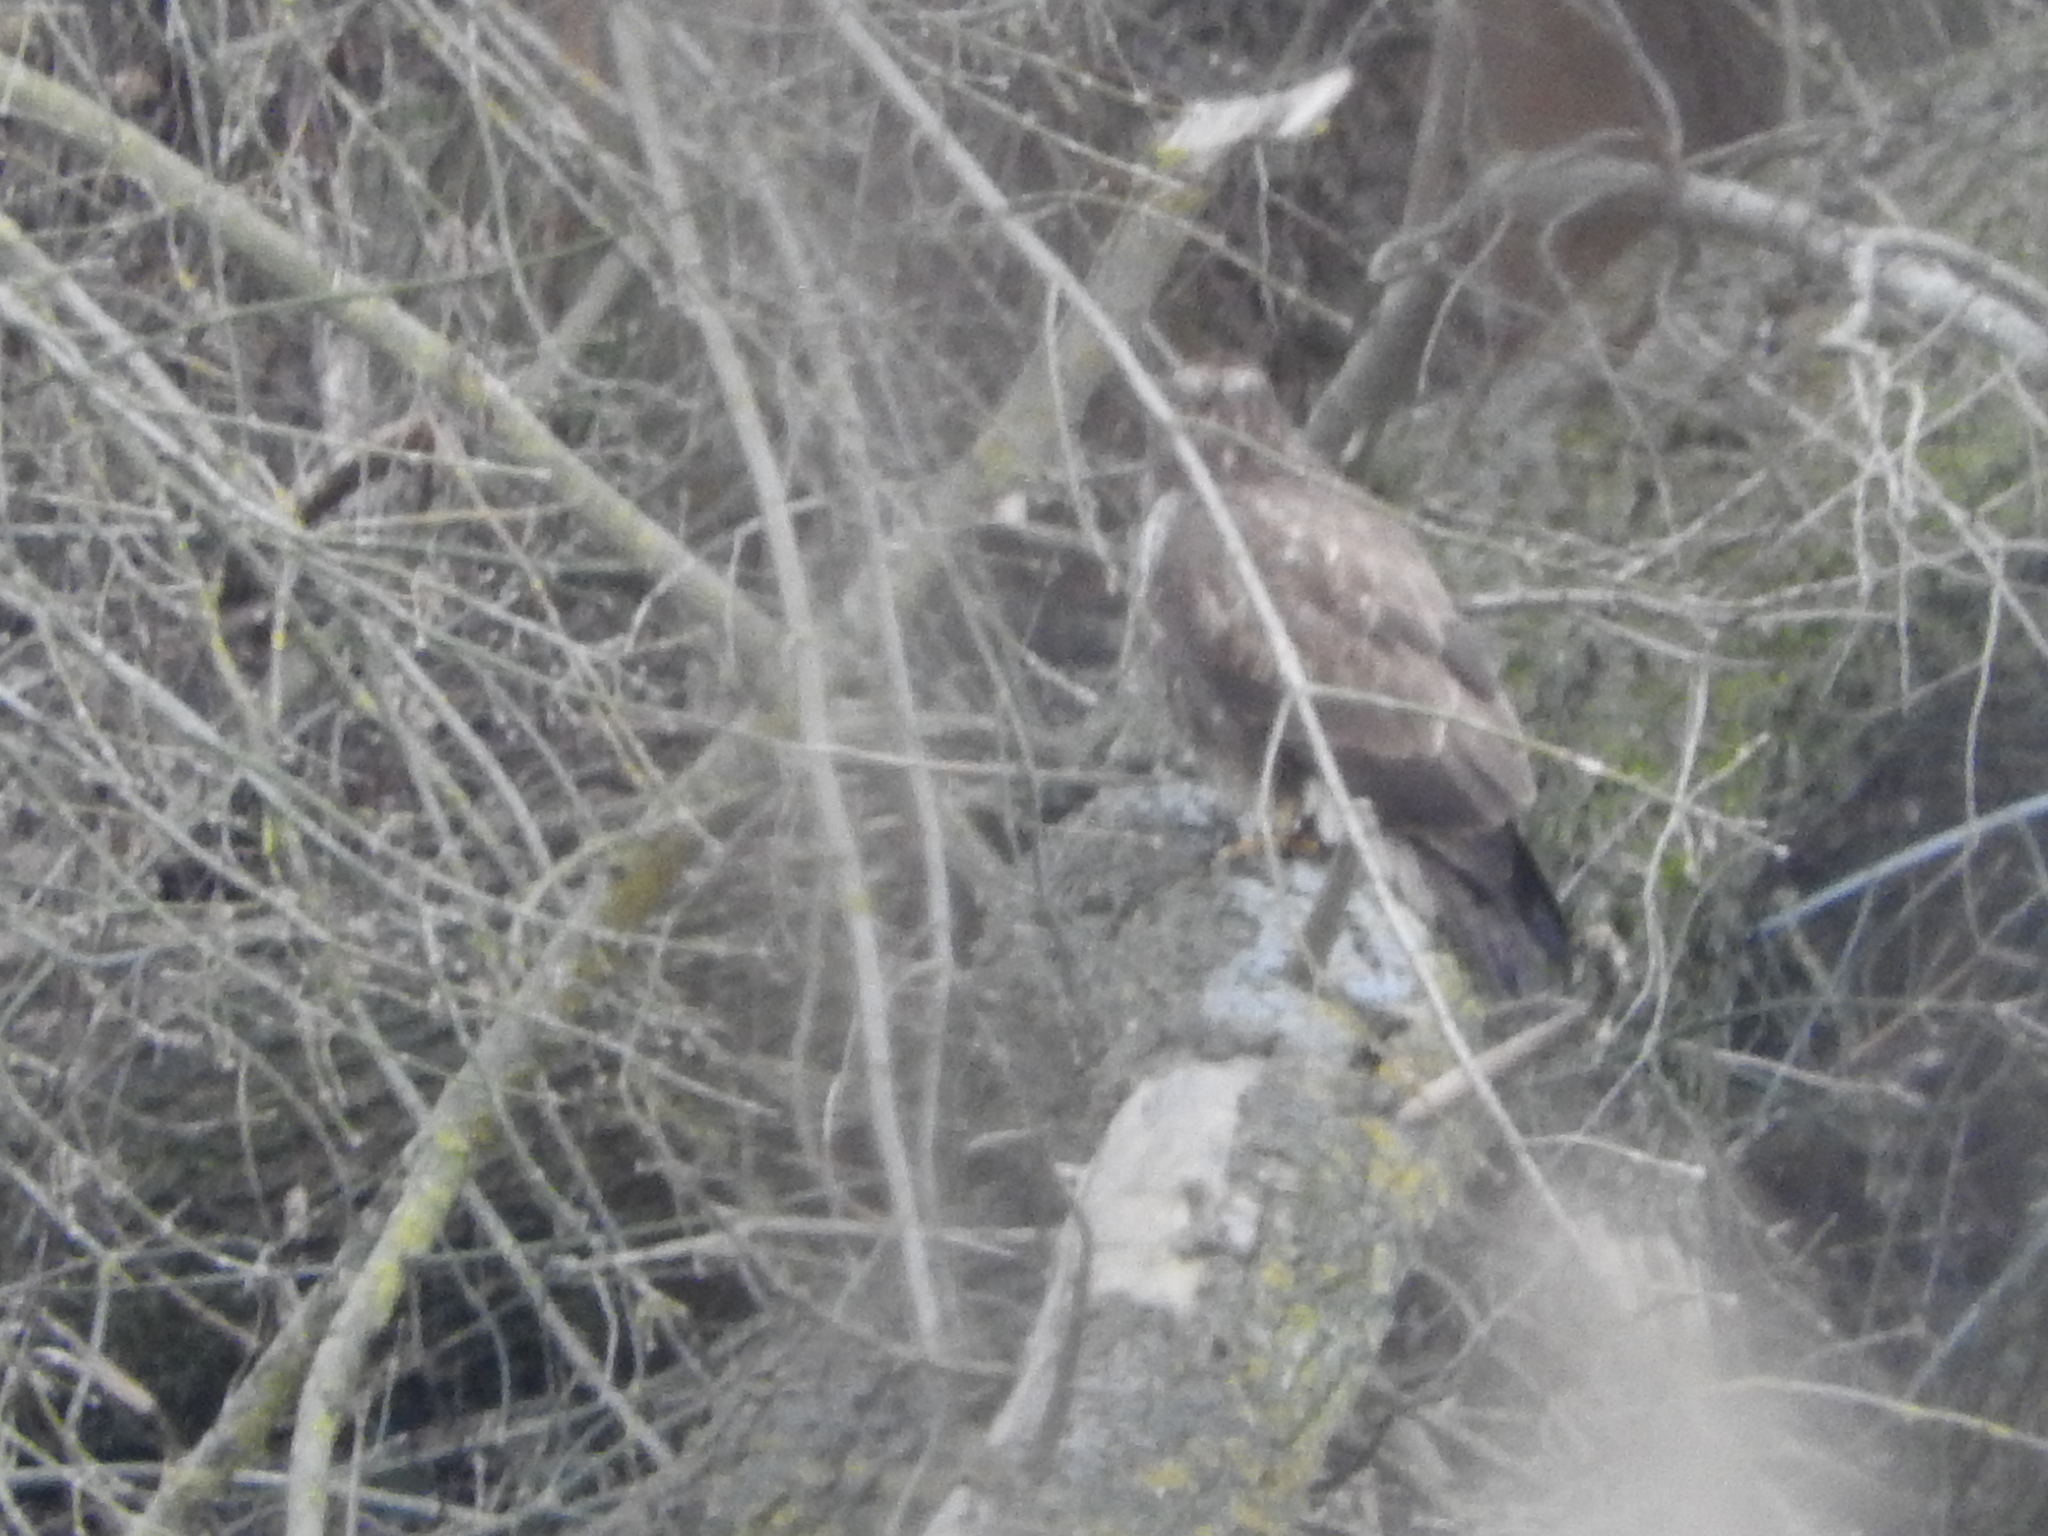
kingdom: Animalia
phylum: Chordata
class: Aves
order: Accipitriformes
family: Accipitridae
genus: Buteo
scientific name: Buteo buteo
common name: Common buzzard
